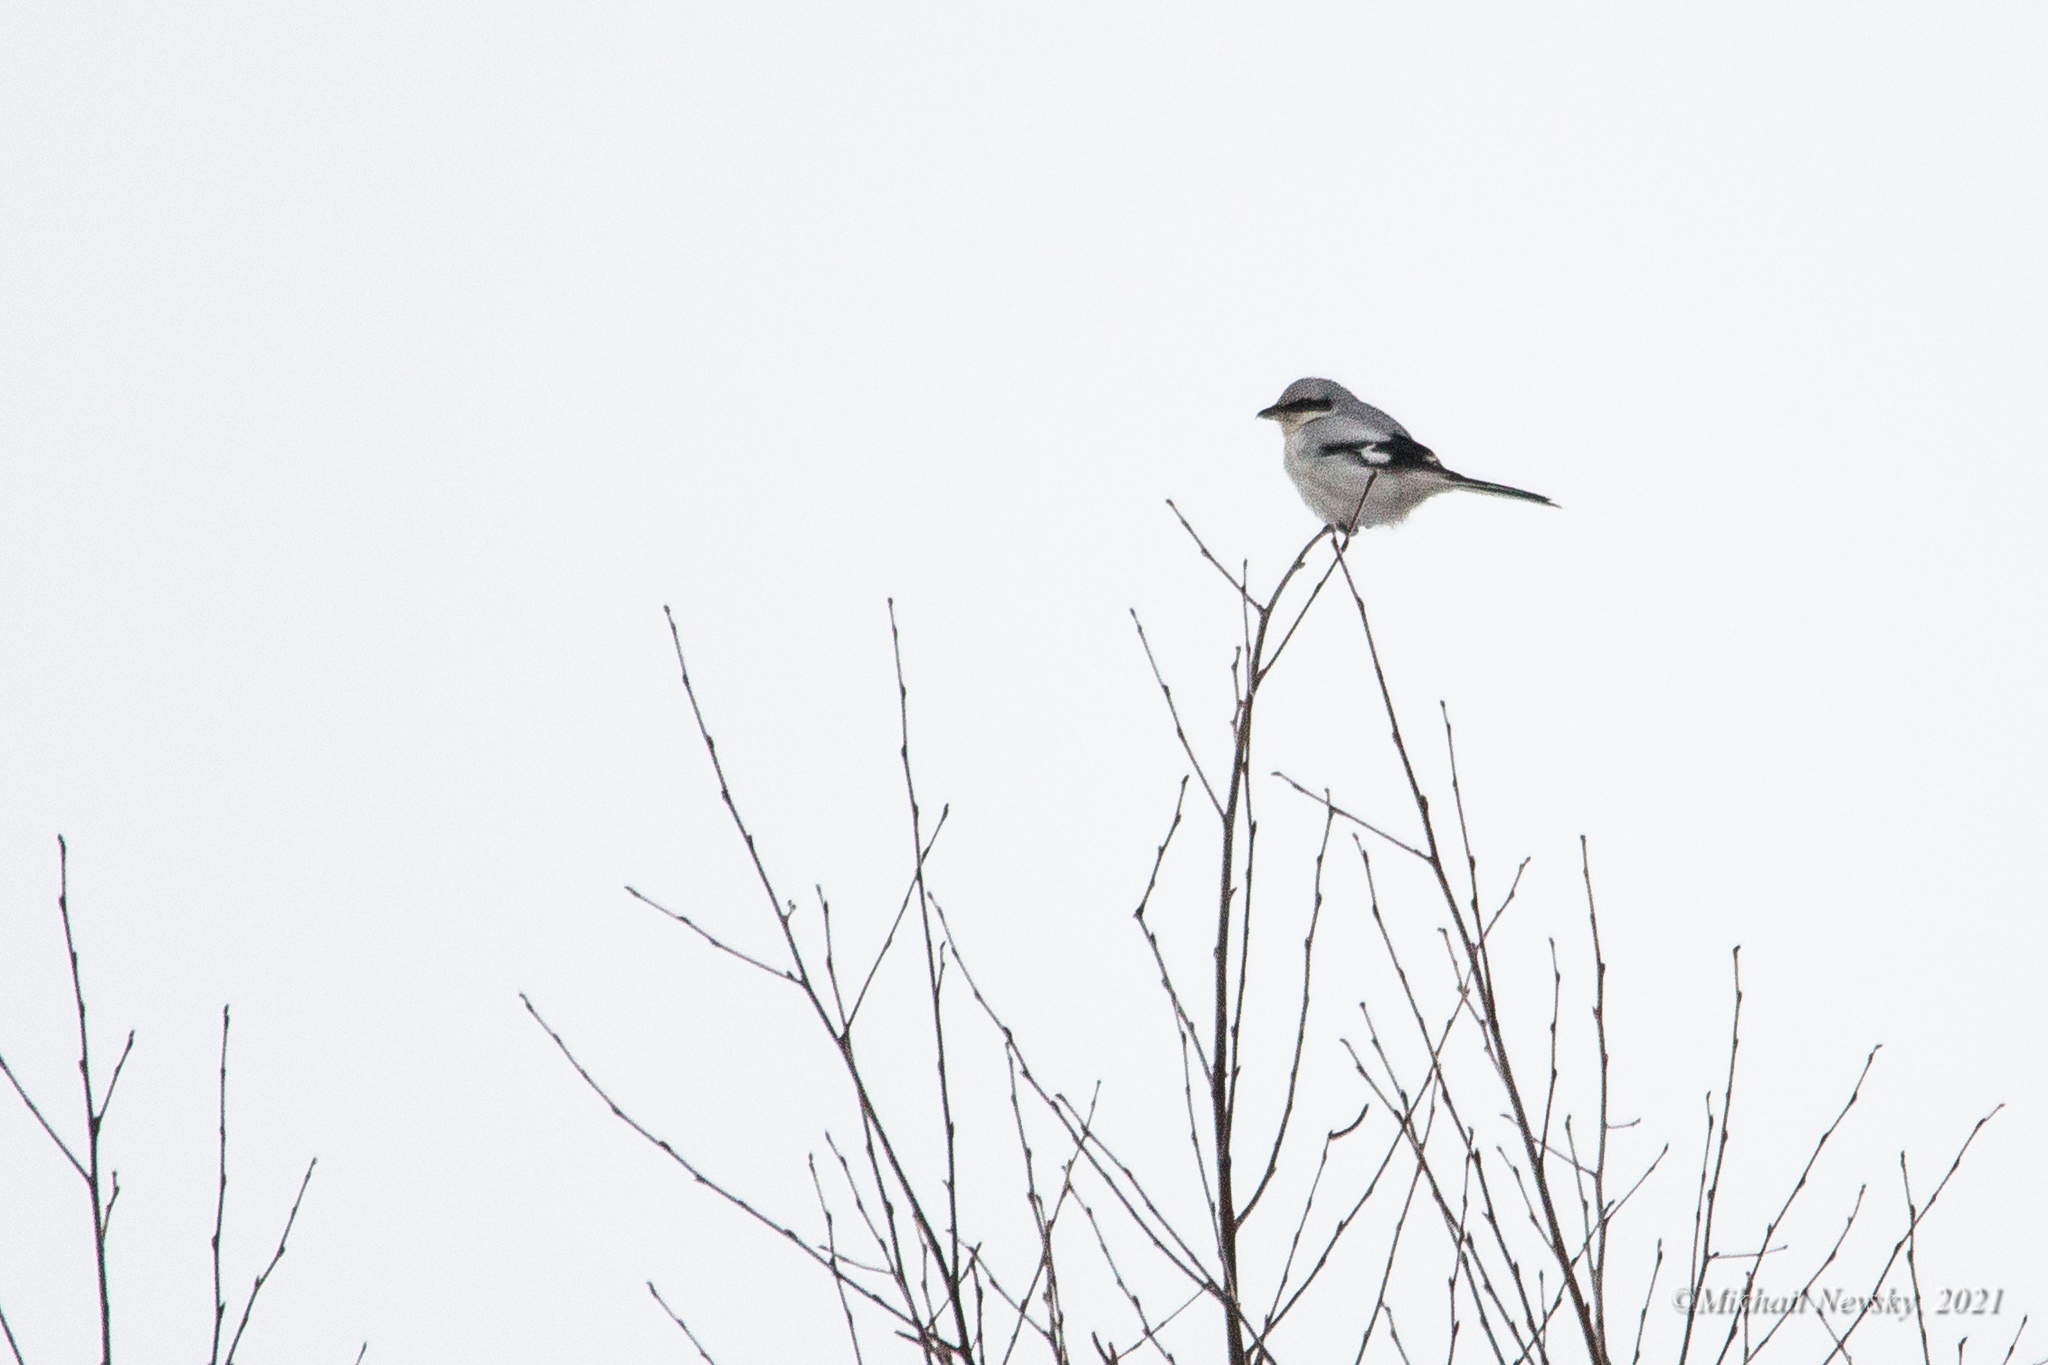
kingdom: Animalia
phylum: Chordata
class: Aves
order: Passeriformes
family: Laniidae
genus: Lanius
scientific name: Lanius excubitor
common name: Great grey shrike
